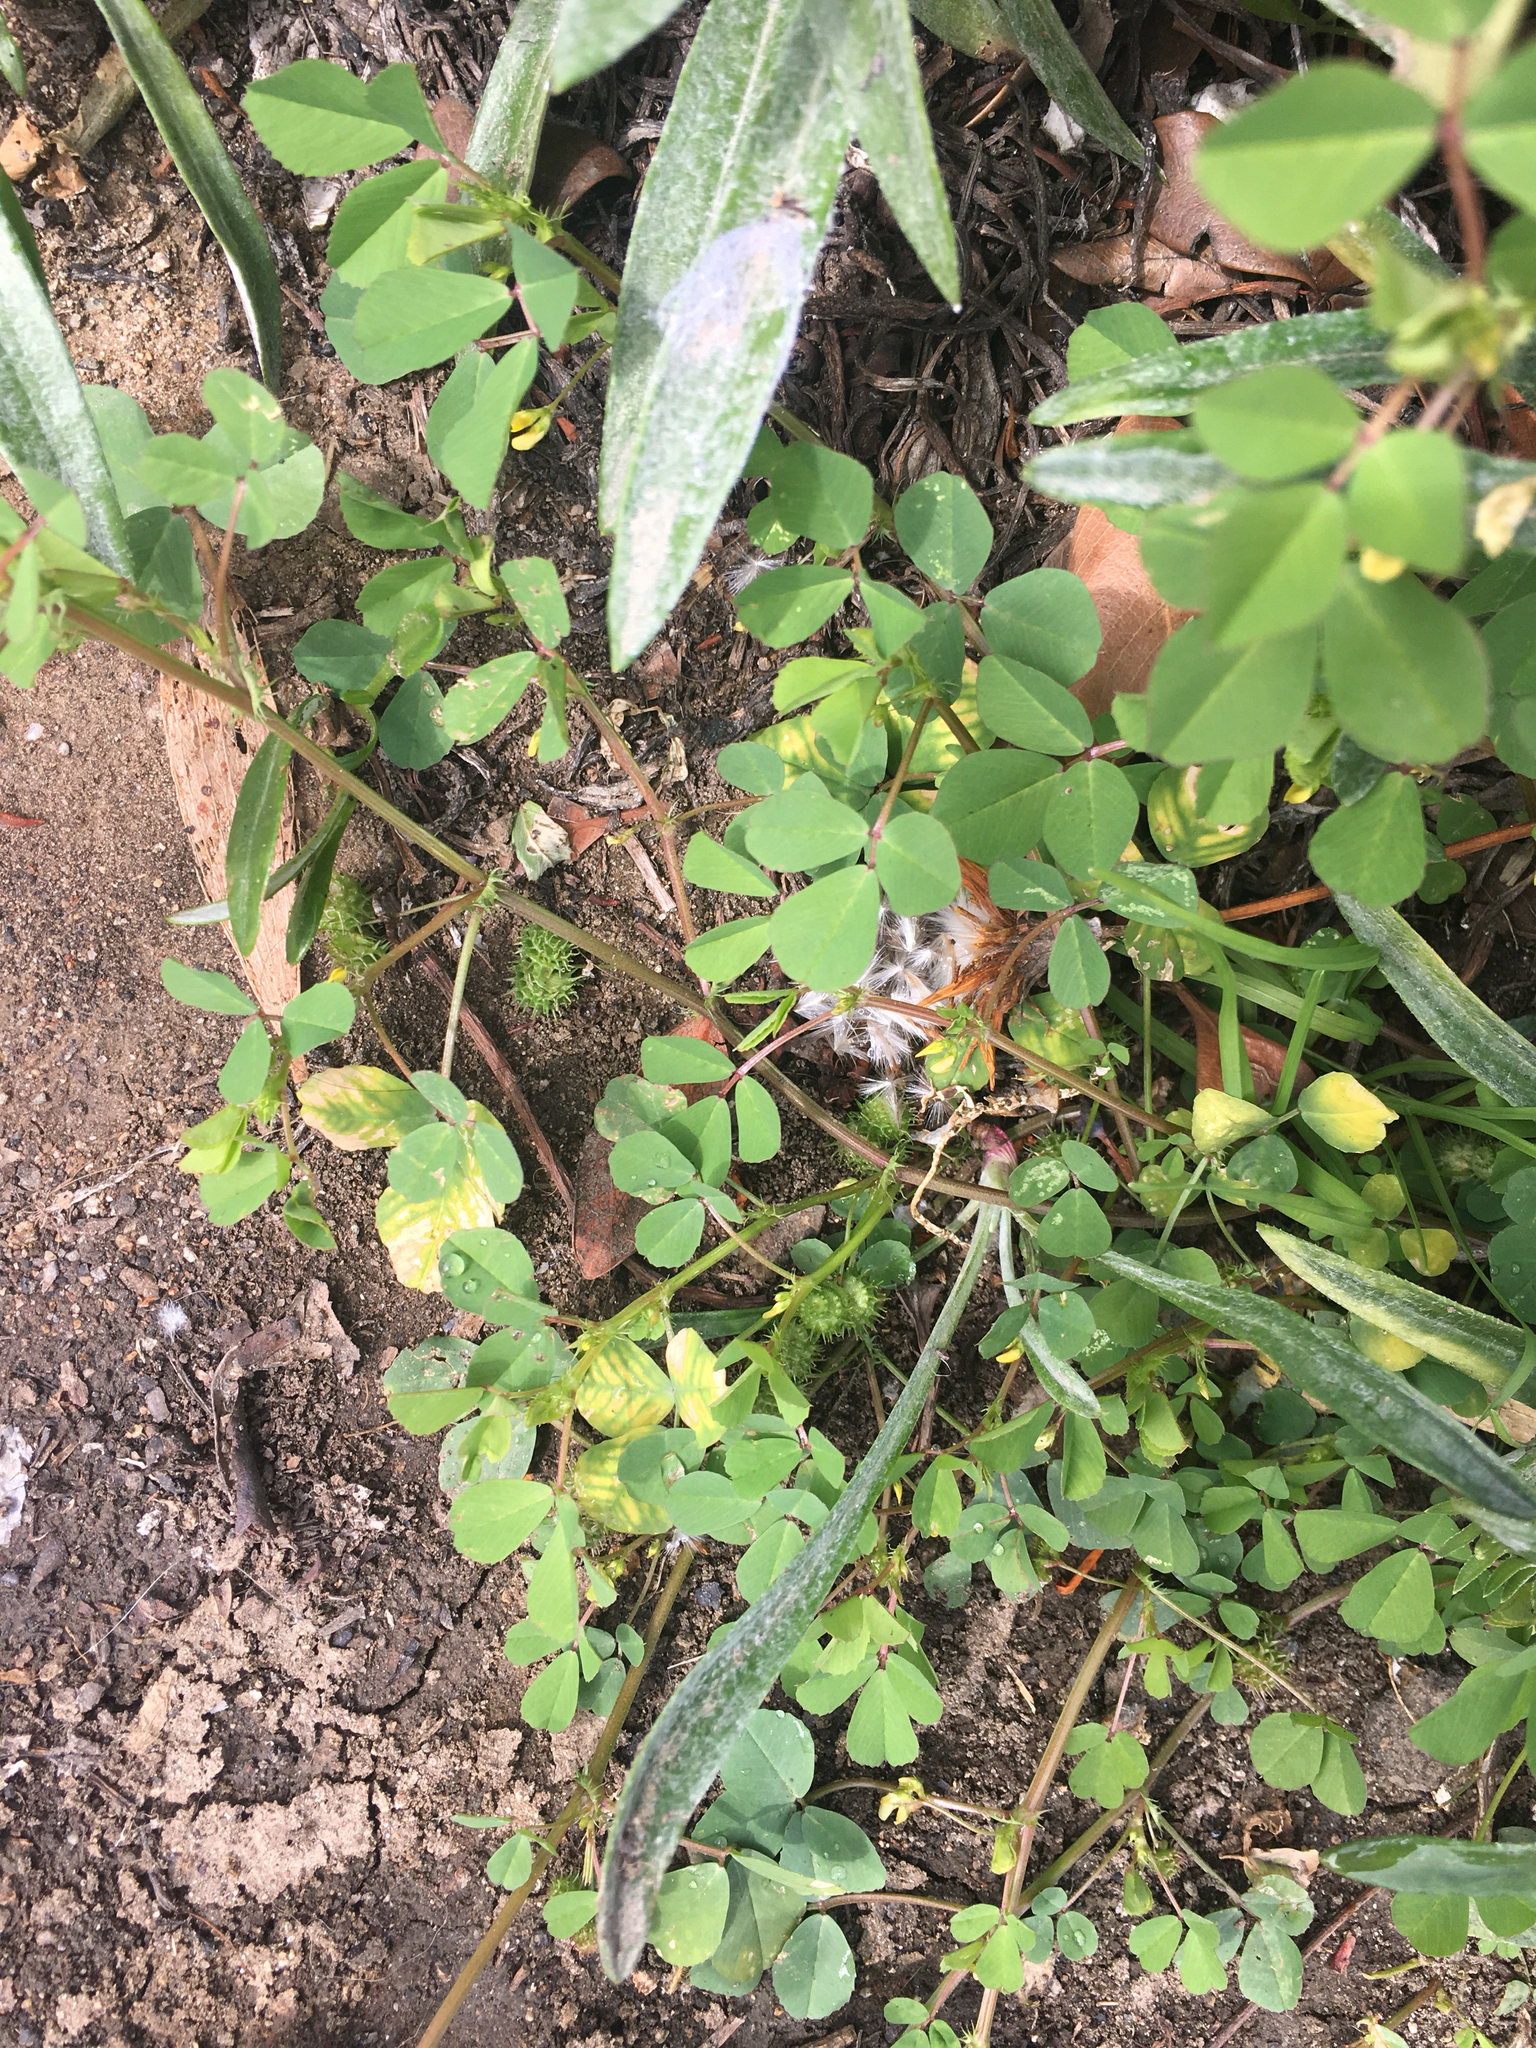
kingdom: Plantae
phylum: Tracheophyta
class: Magnoliopsida
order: Fabales
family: Fabaceae
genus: Medicago
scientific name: Medicago polymorpha
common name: Burclover
